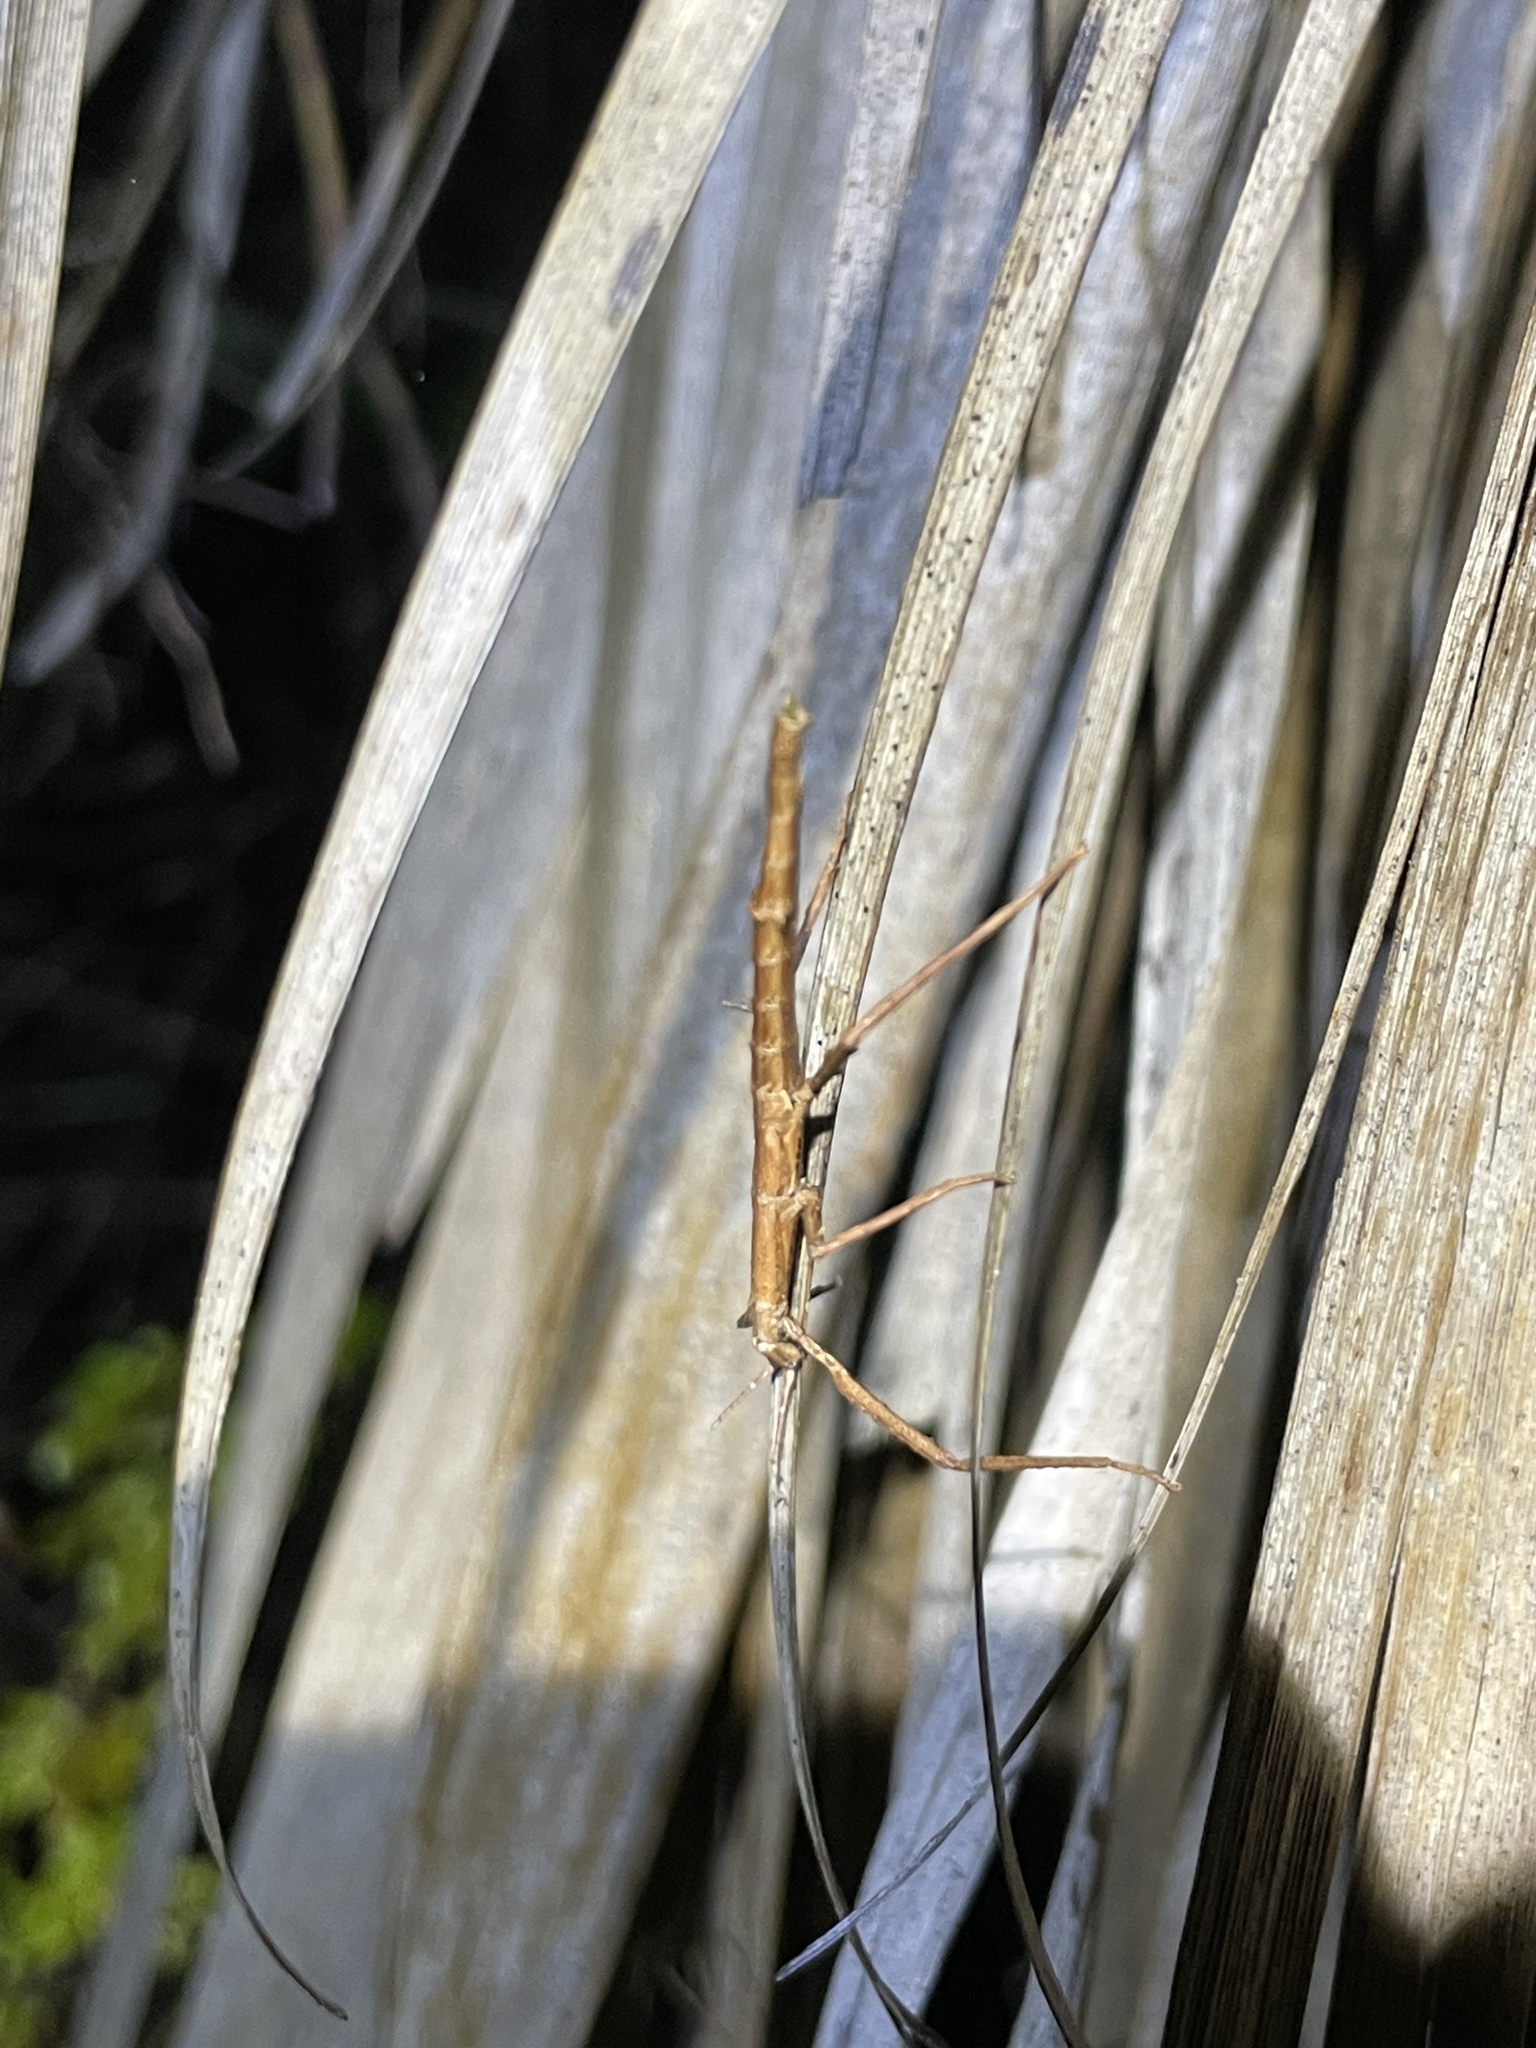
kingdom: Animalia
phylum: Arthropoda
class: Insecta
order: Phasmida
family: Phasmatidae
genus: Niveaphasma
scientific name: Niveaphasma annulatum
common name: Hutton's stick insect
